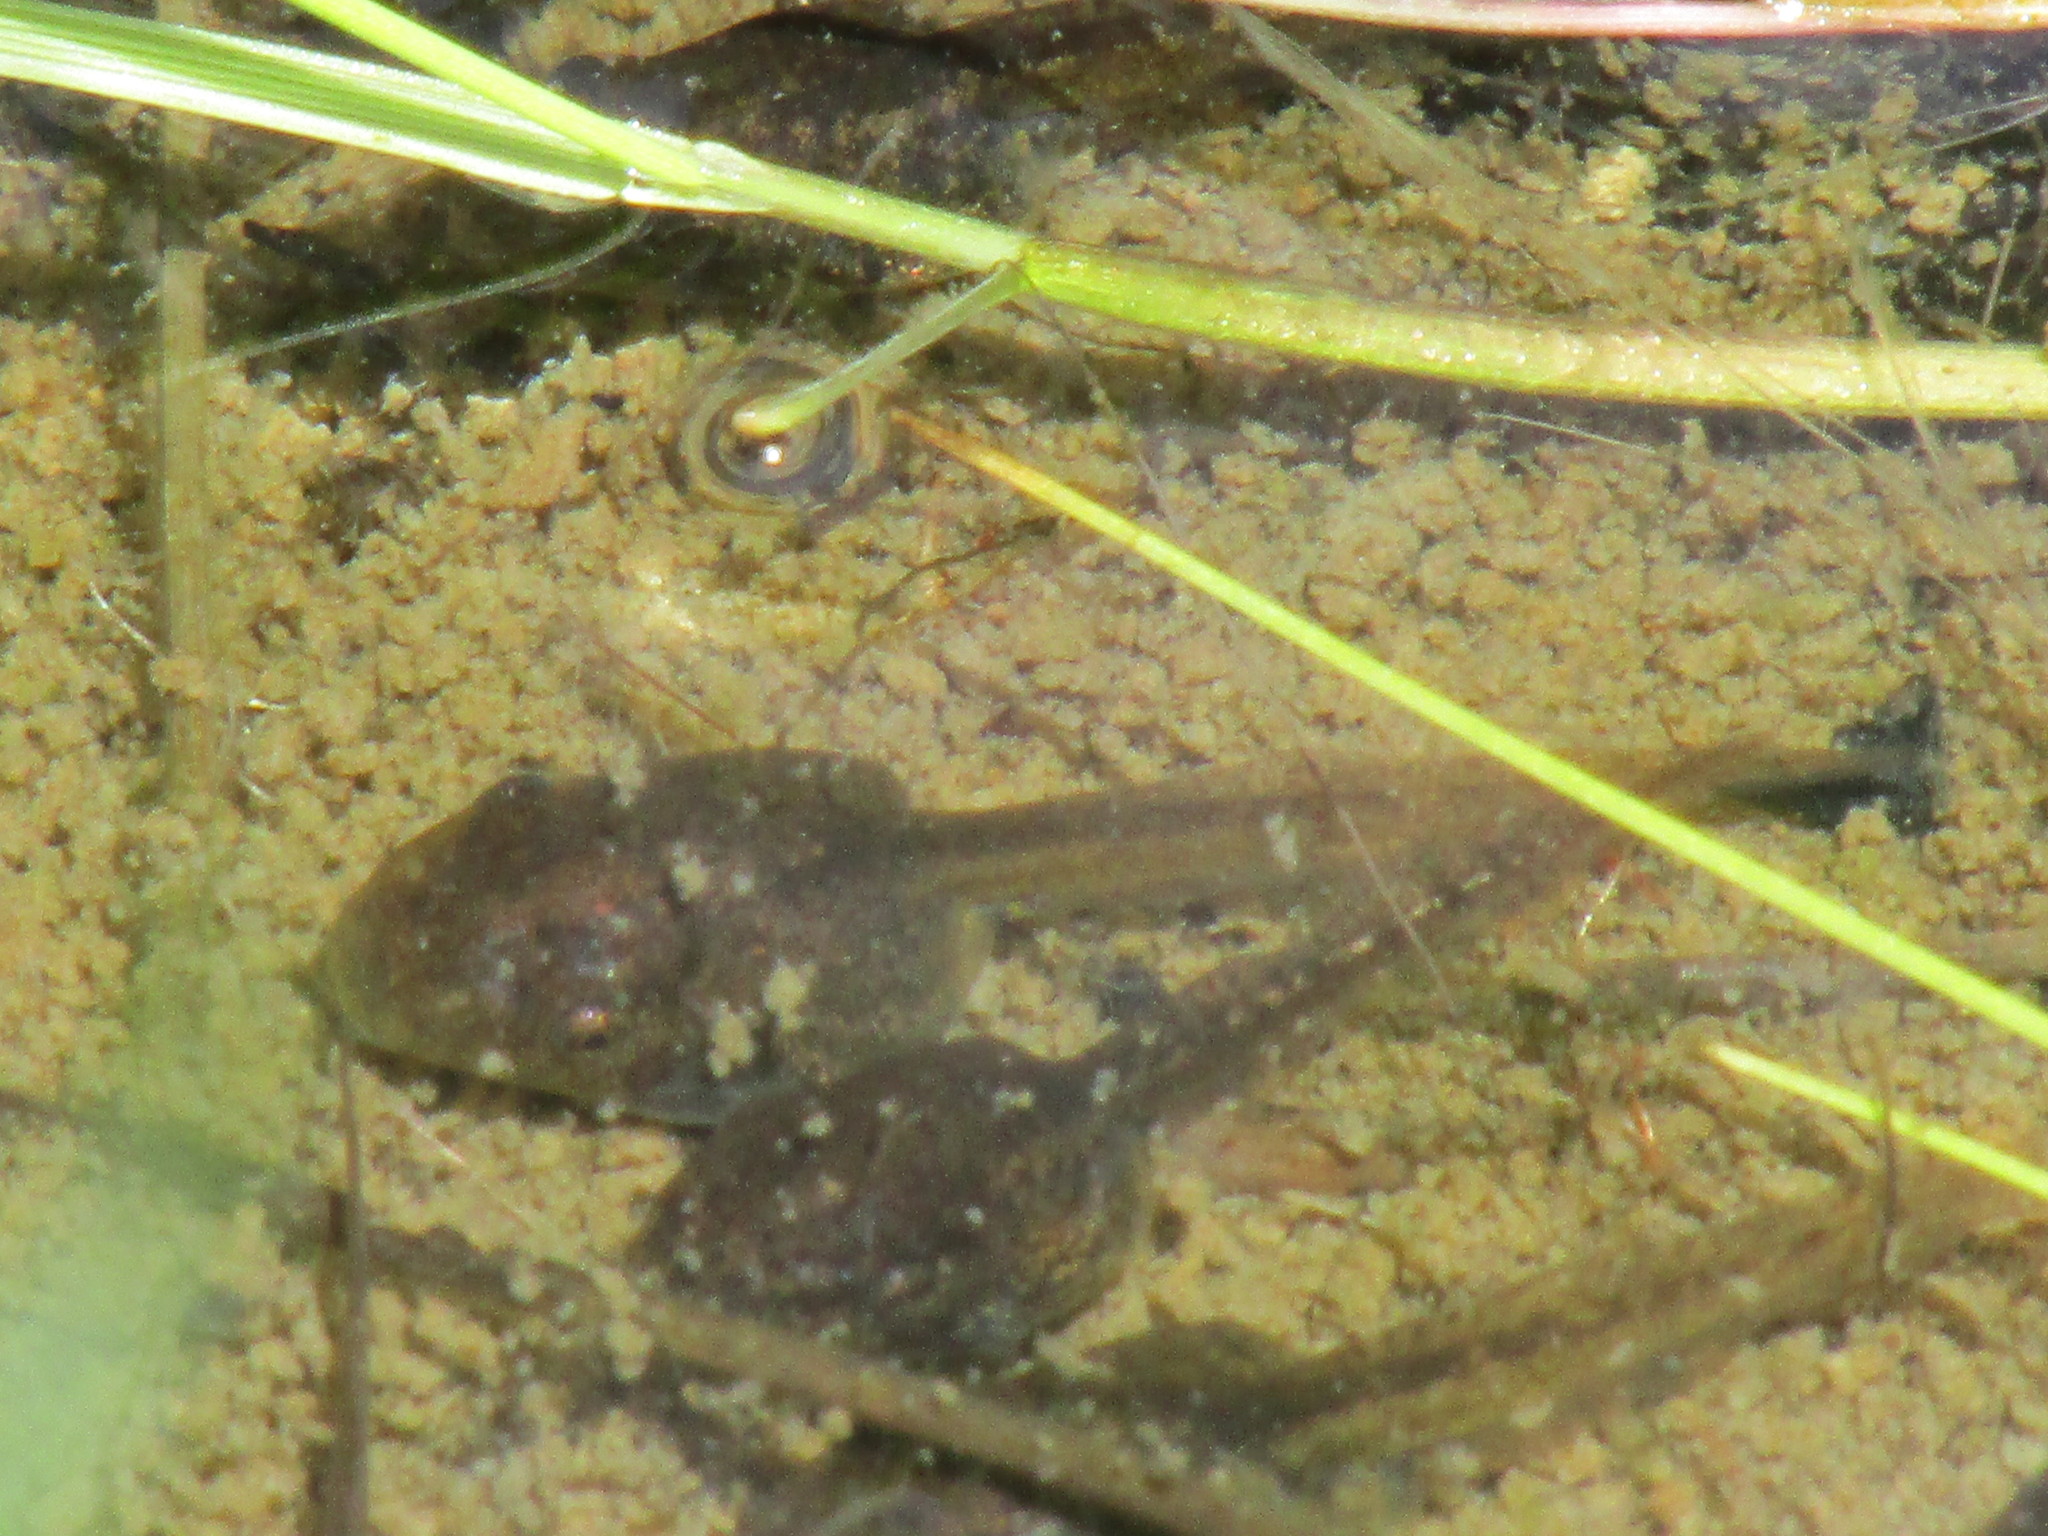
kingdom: Animalia
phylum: Chordata
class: Amphibia
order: Anura
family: Hylidae
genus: Pseudacris
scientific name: Pseudacris regilla
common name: Pacific chorus frog
